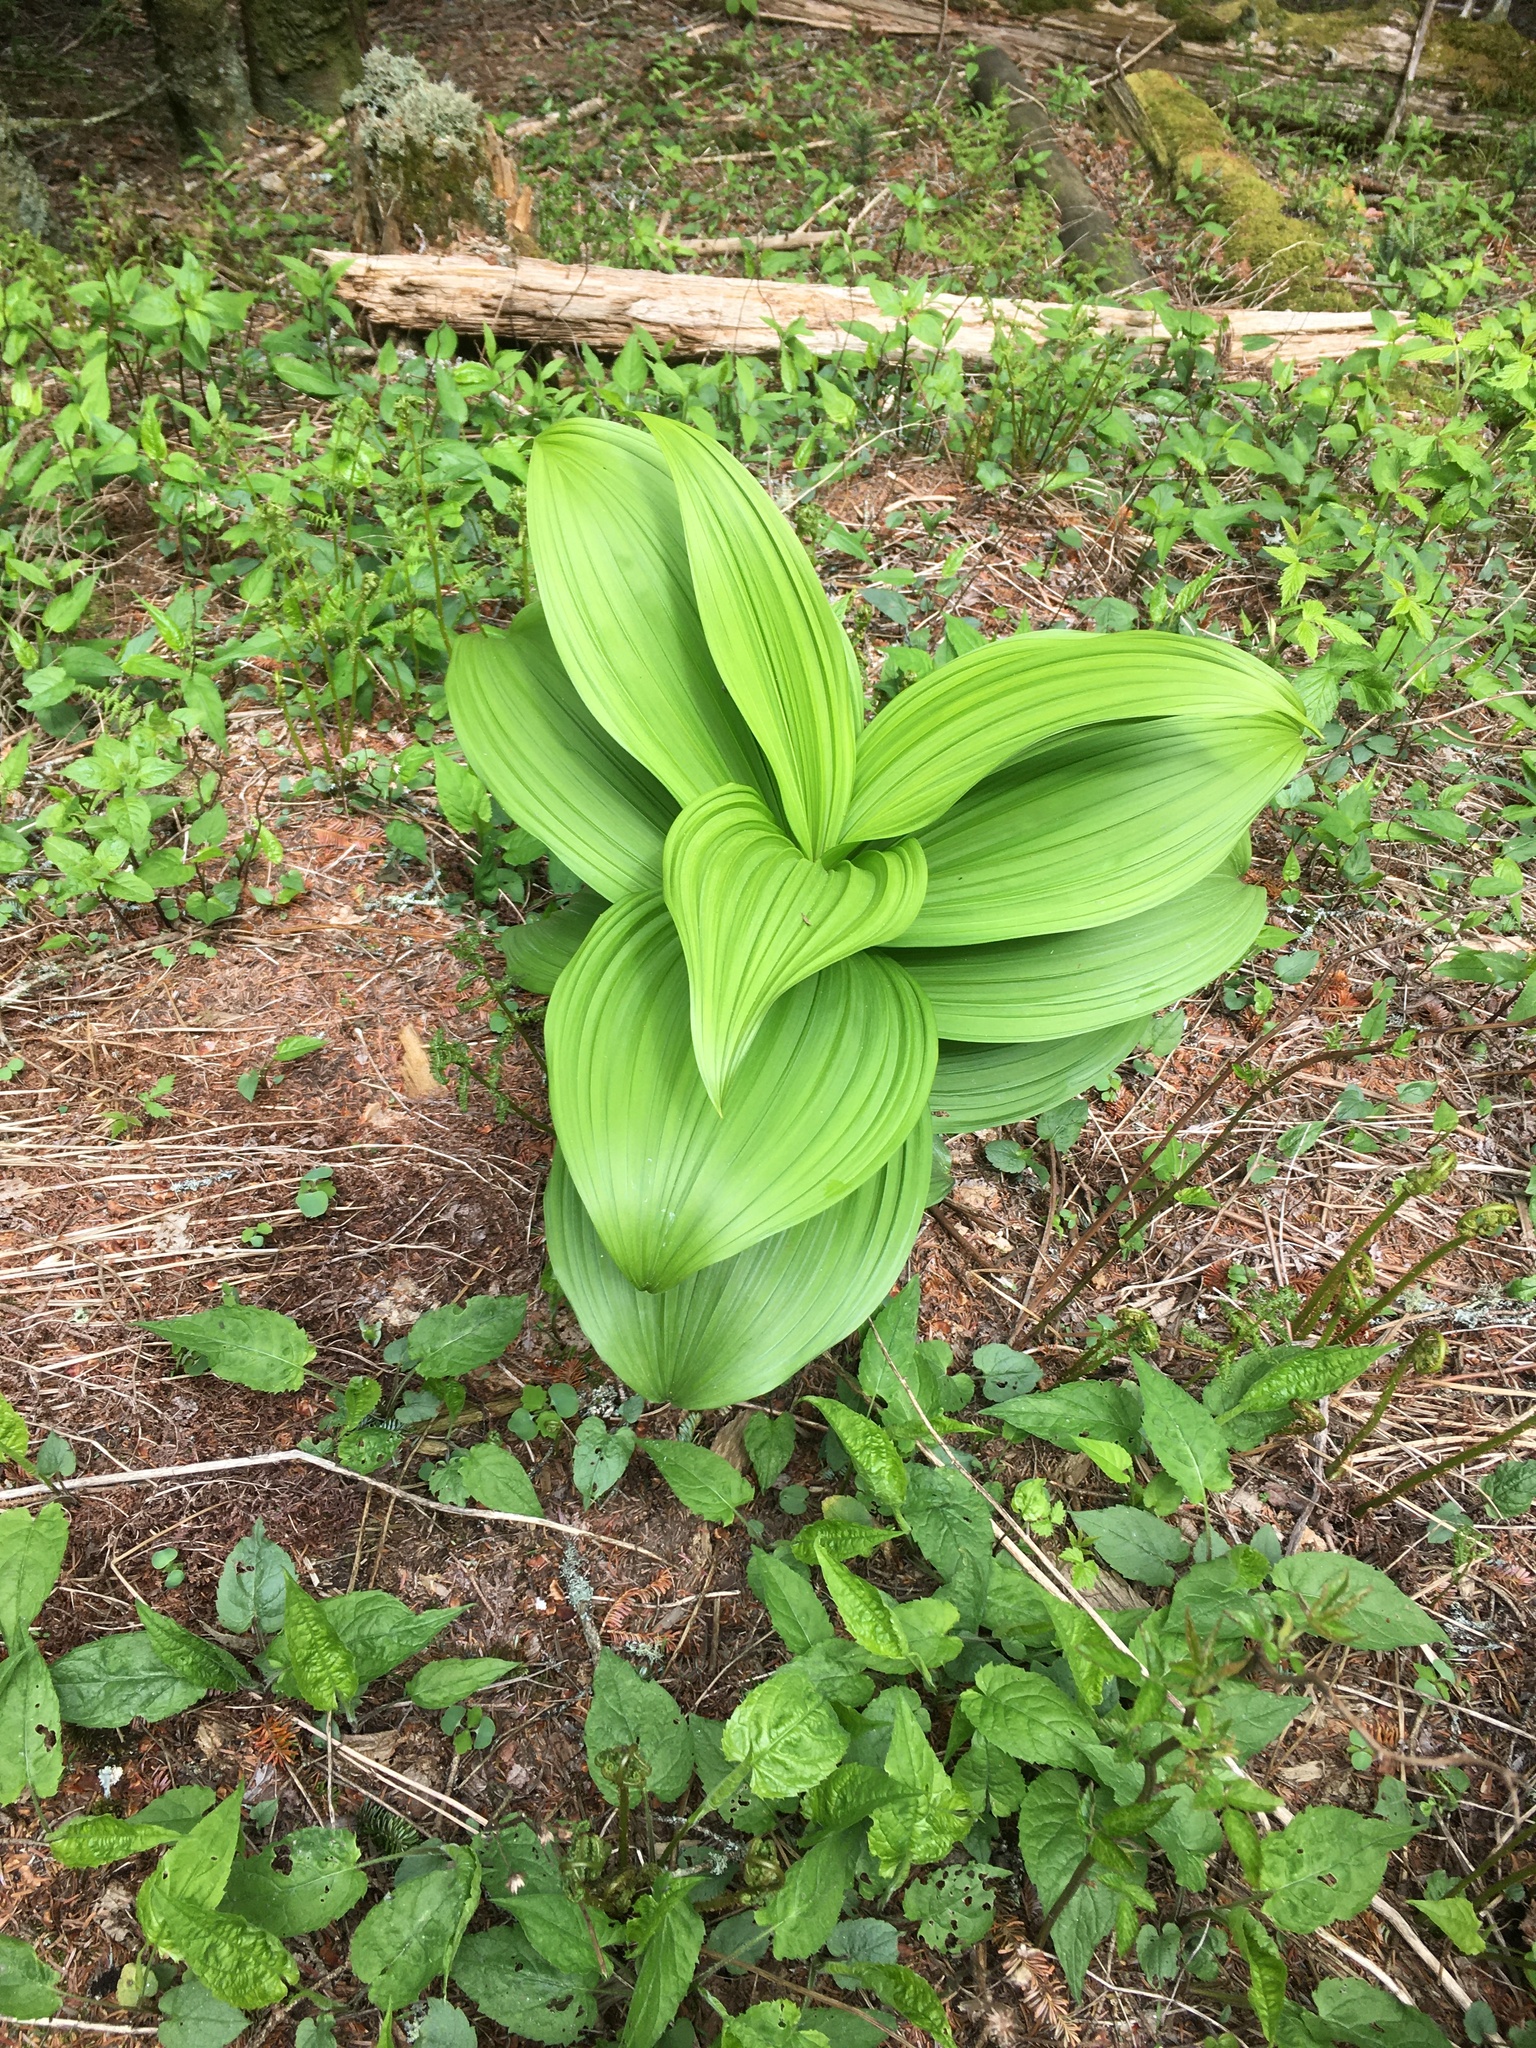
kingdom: Plantae
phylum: Tracheophyta
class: Liliopsida
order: Liliales
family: Melanthiaceae
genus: Veratrum
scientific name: Veratrum viride
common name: American false hellebore
